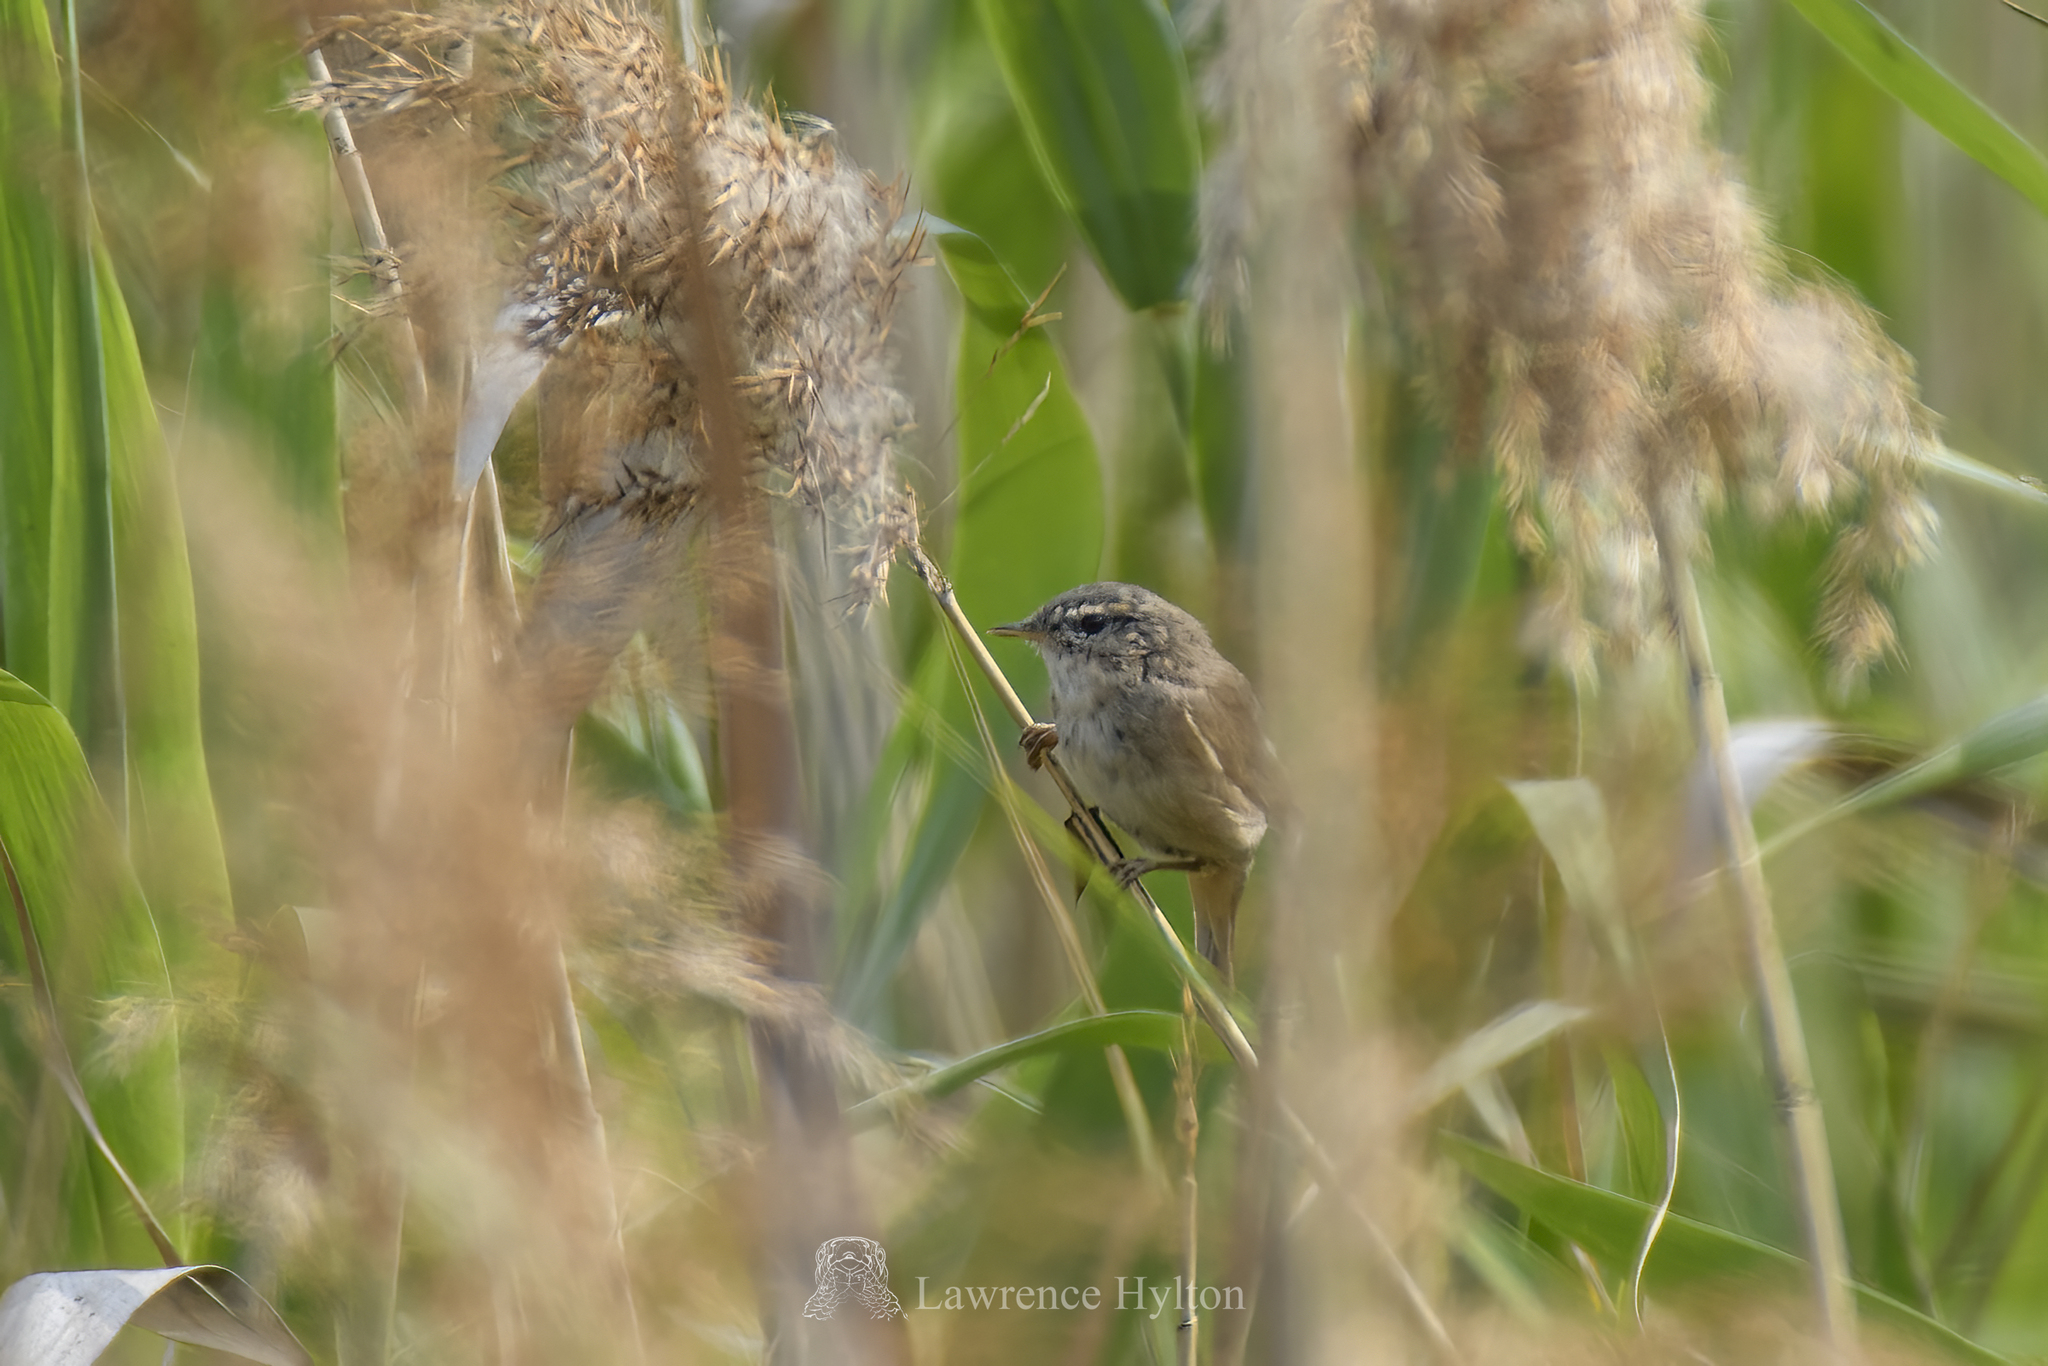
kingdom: Animalia
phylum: Chordata
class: Aves
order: Passeriformes
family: Phylloscopidae
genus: Phylloscopus
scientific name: Phylloscopus fuscatus
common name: Dusky warbler
